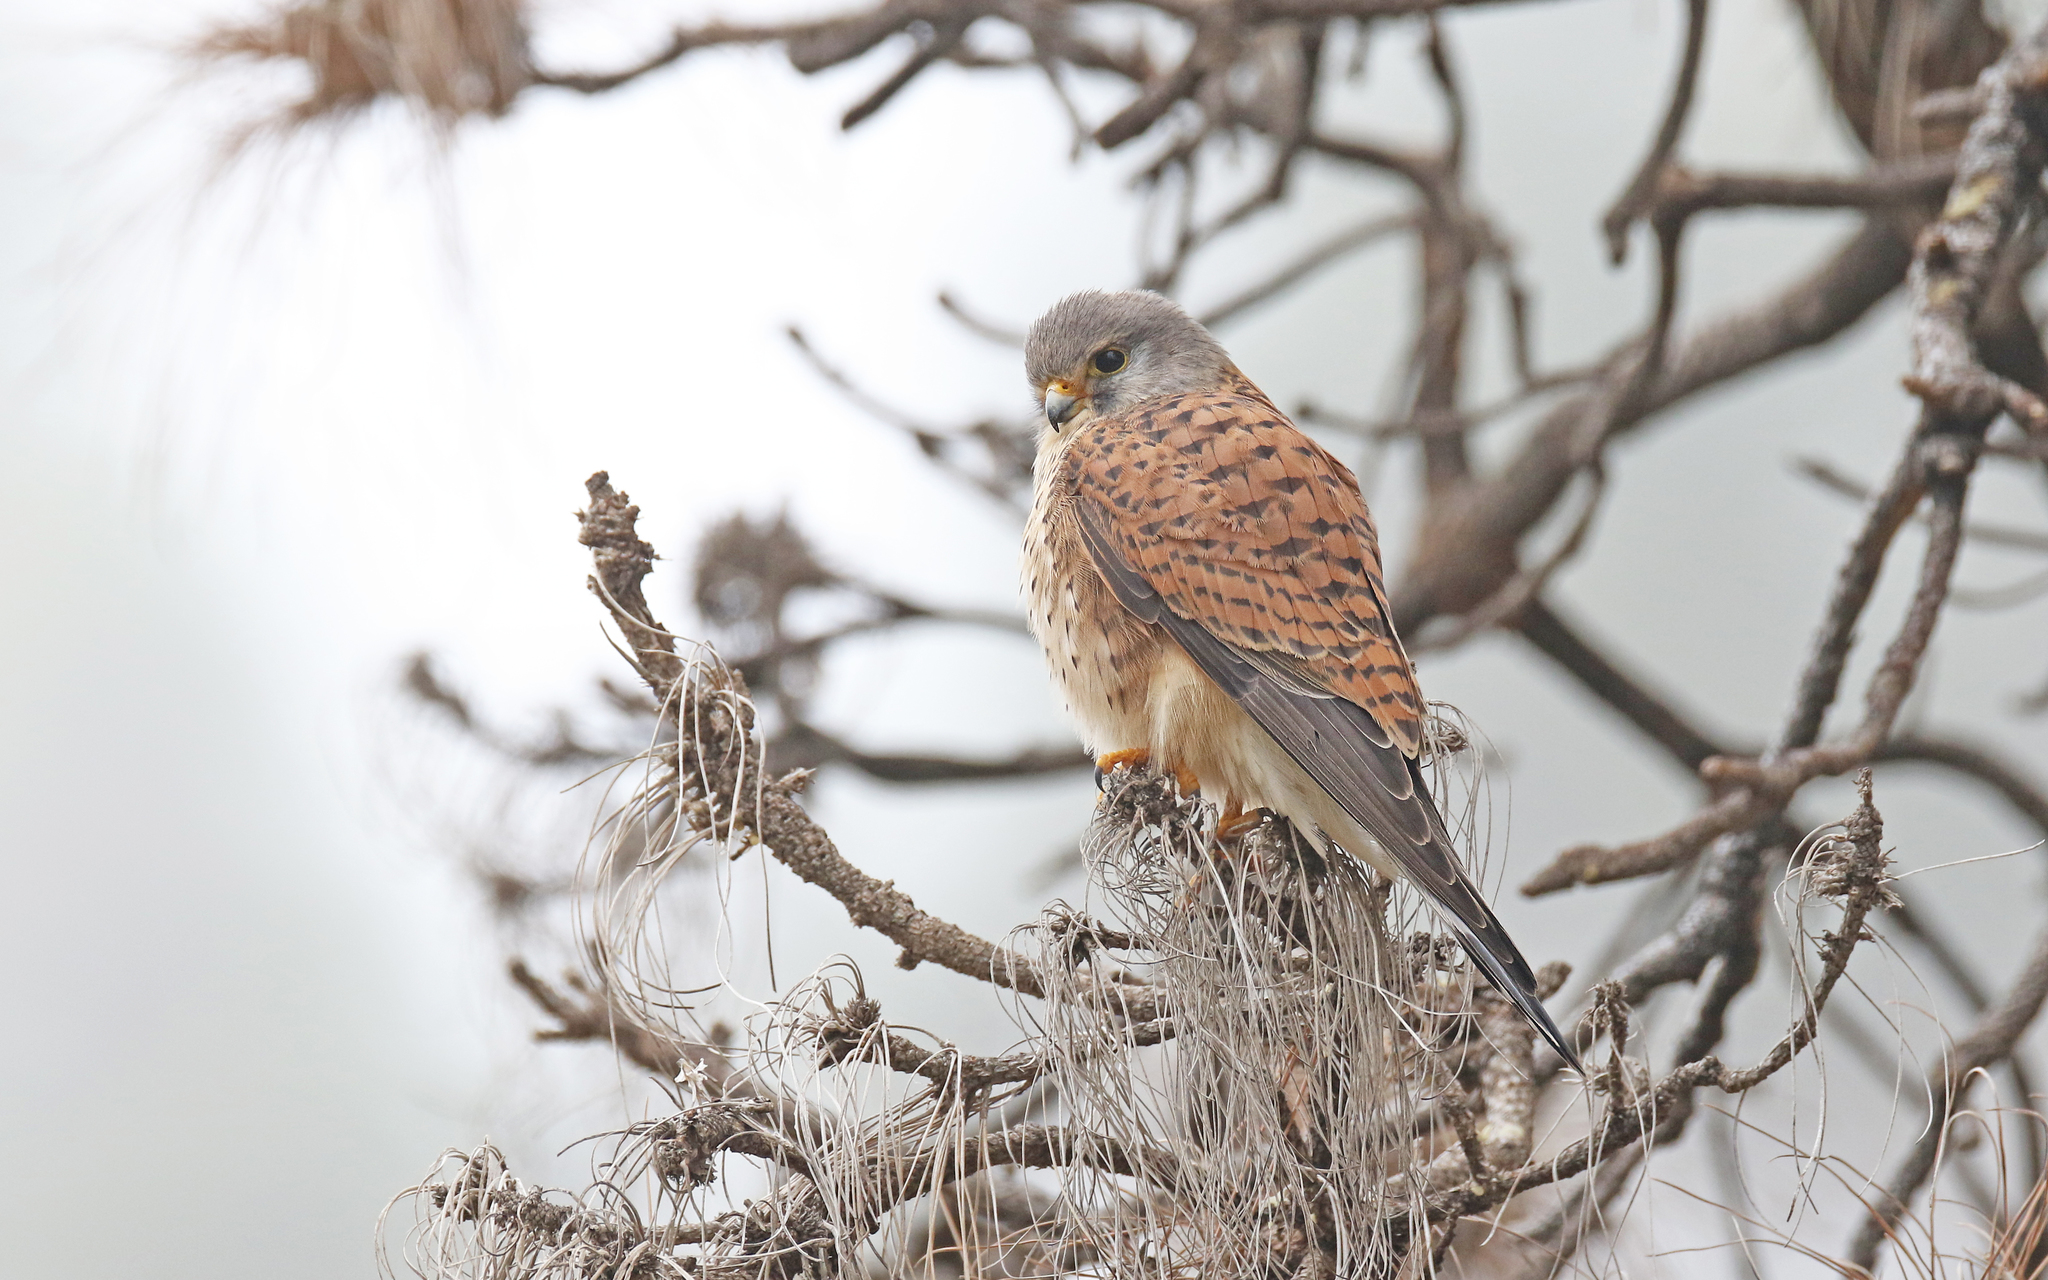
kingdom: Animalia
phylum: Chordata
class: Aves
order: Falconiformes
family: Falconidae
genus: Falco
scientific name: Falco tinnunculus
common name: Common kestrel
